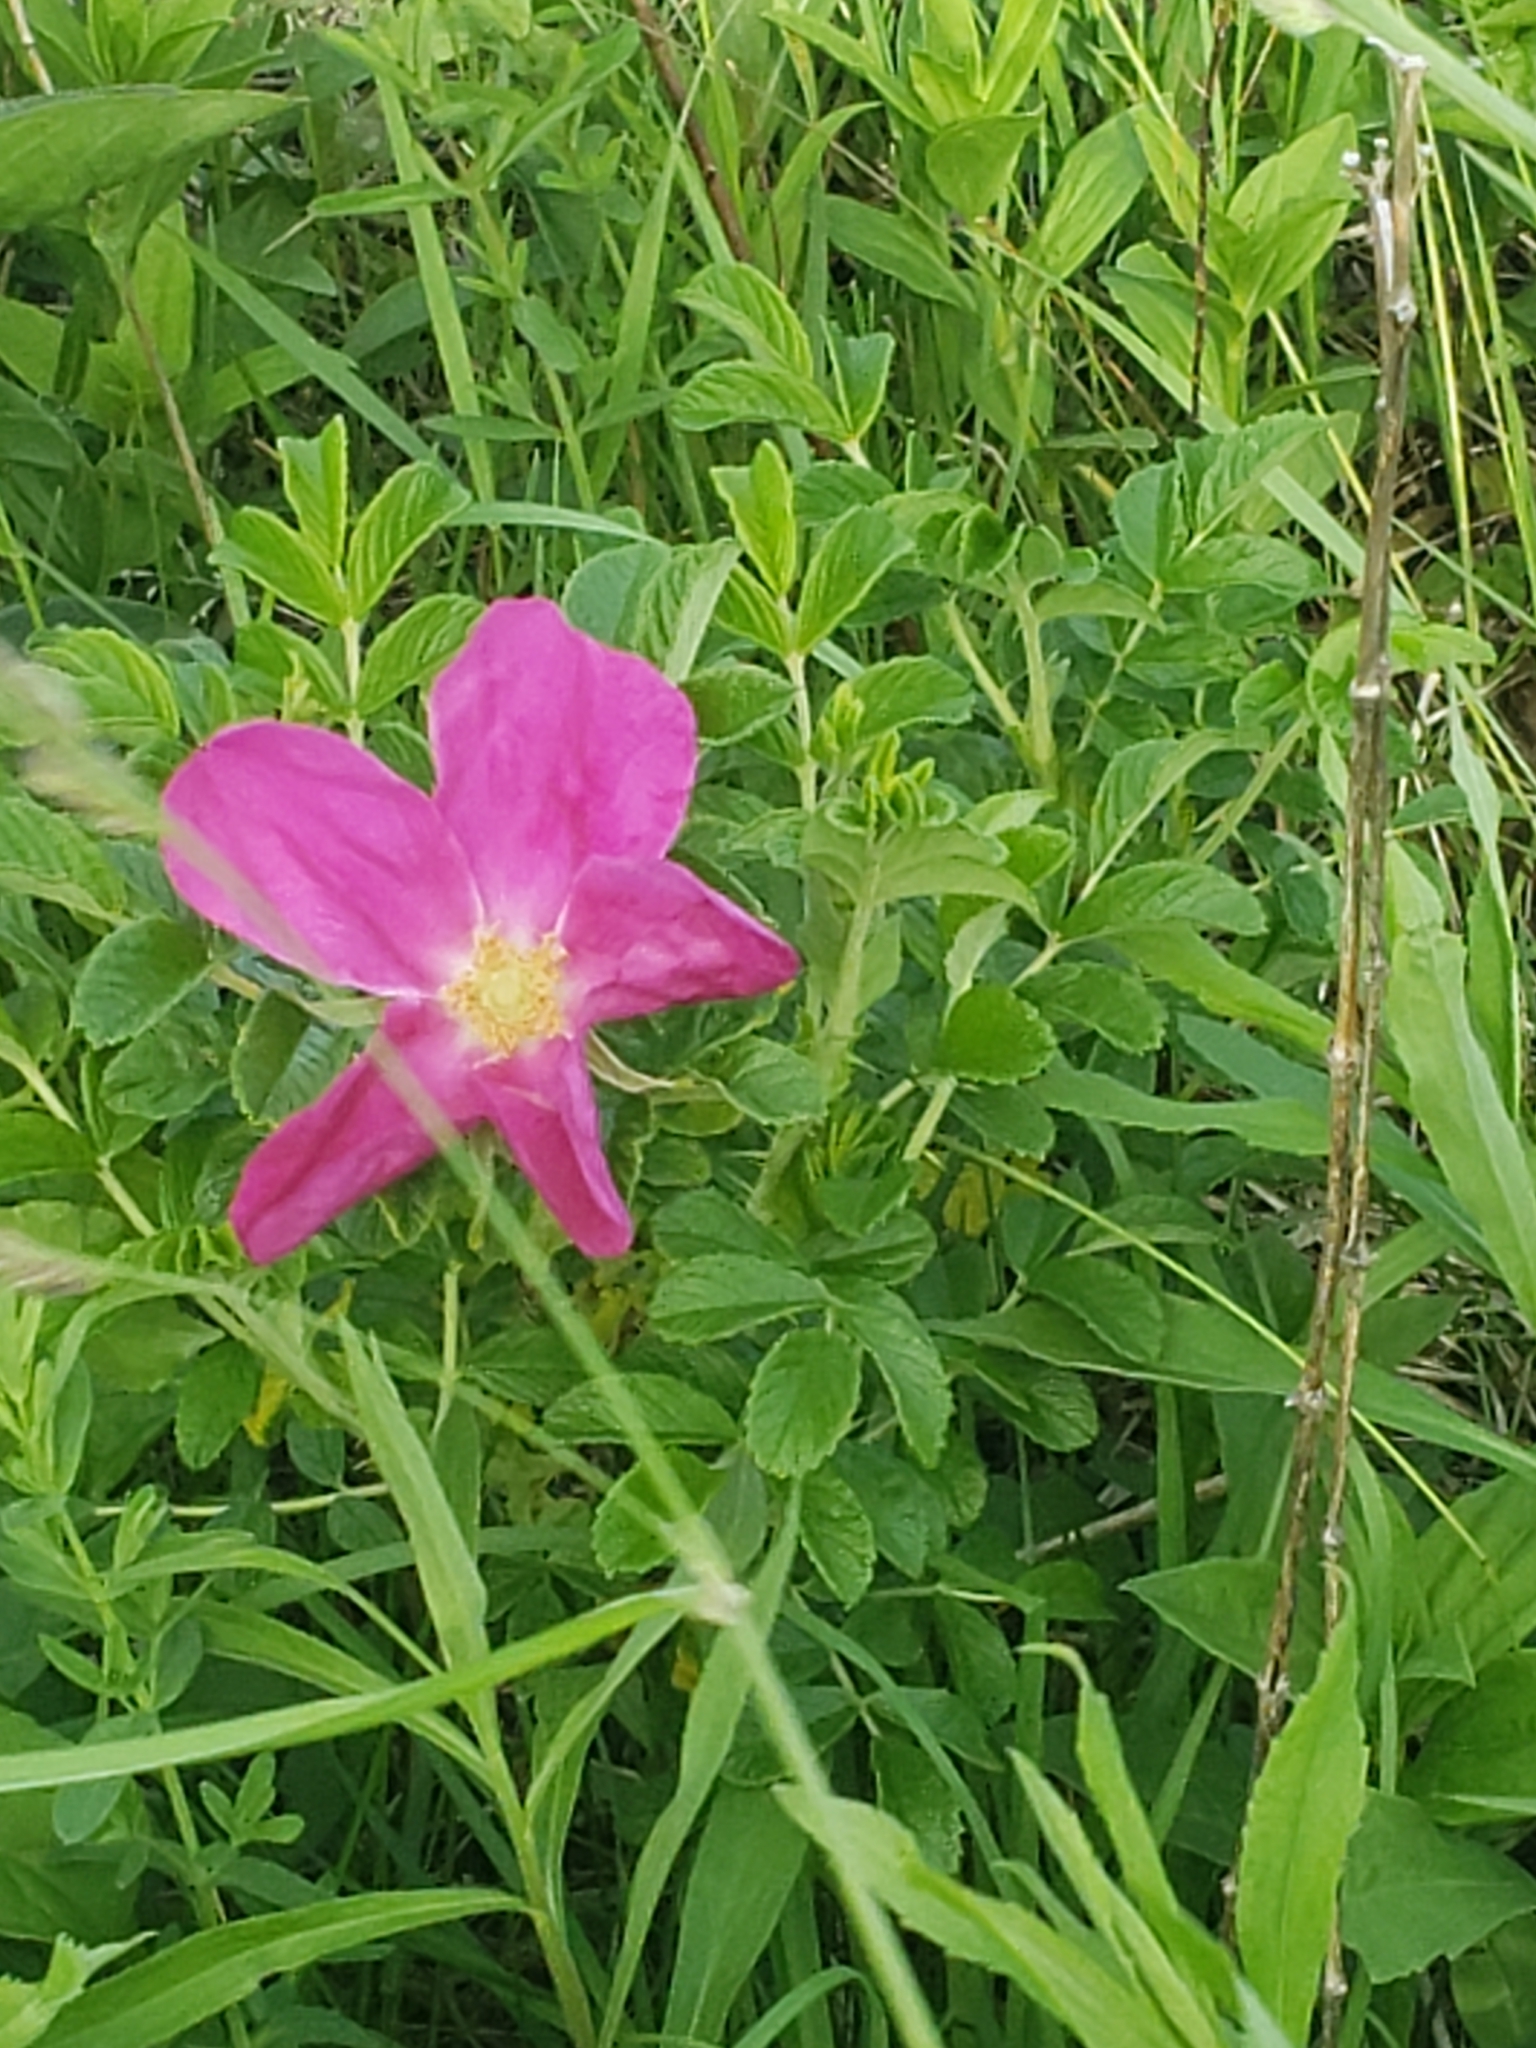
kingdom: Plantae
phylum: Tracheophyta
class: Magnoliopsida
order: Rosales
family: Rosaceae
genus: Rosa
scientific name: Rosa rugosa
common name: Japanese rose
